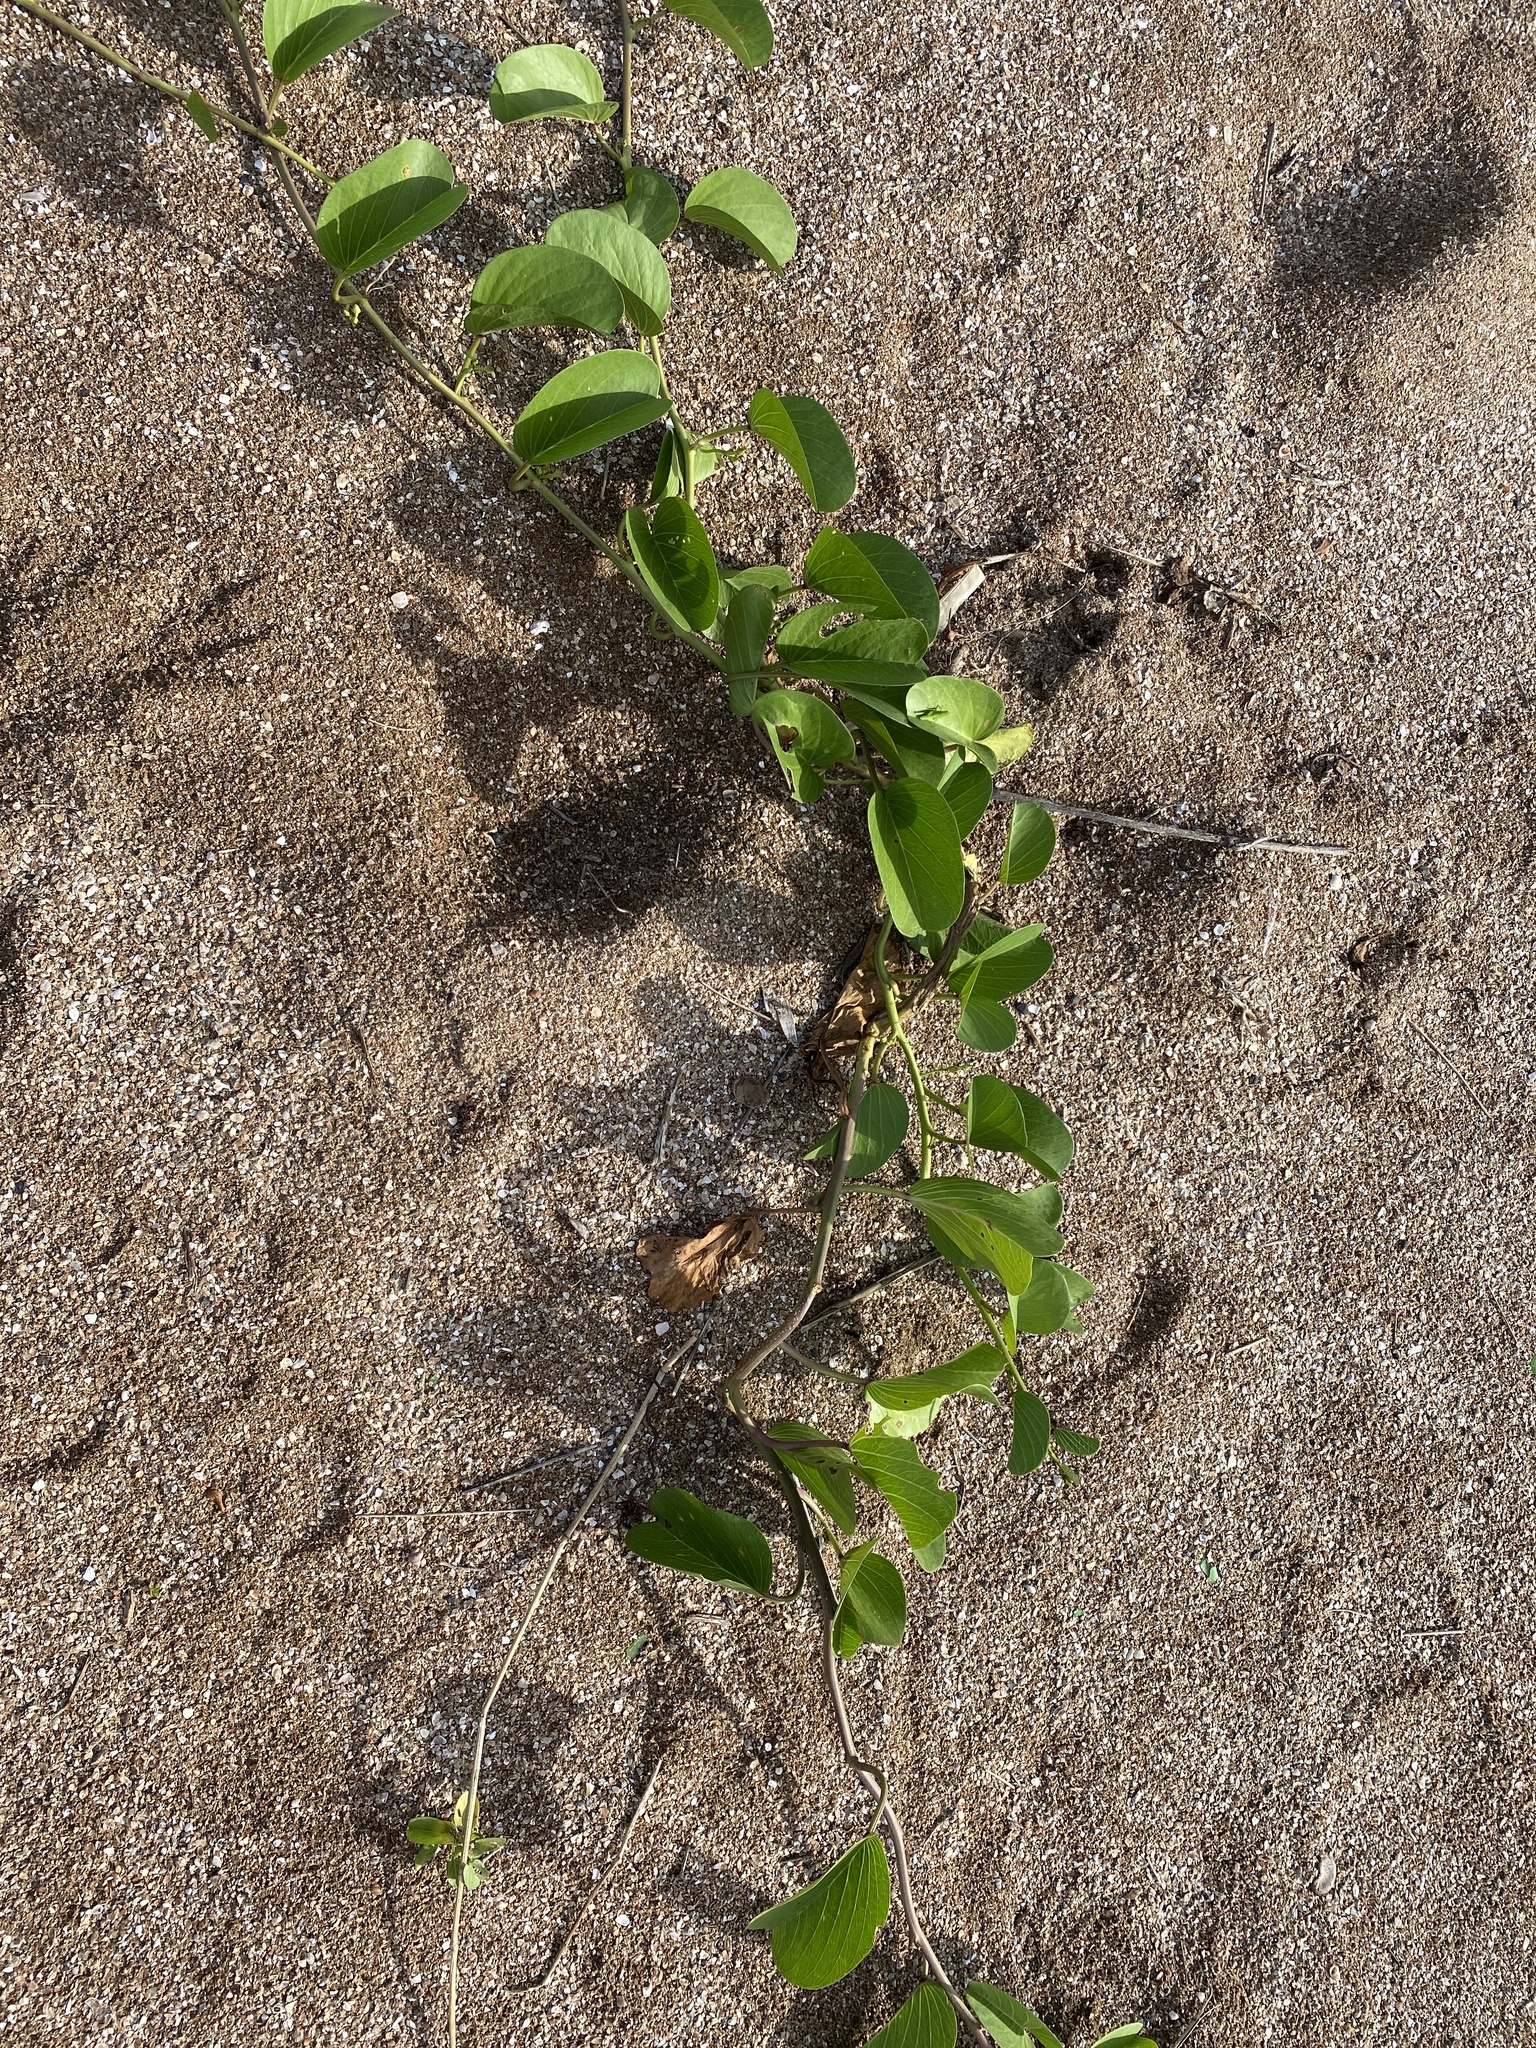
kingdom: Plantae
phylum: Tracheophyta
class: Magnoliopsida
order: Solanales
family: Convolvulaceae
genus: Ipomoea
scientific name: Ipomoea pes-caprae
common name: Beach morning glory
